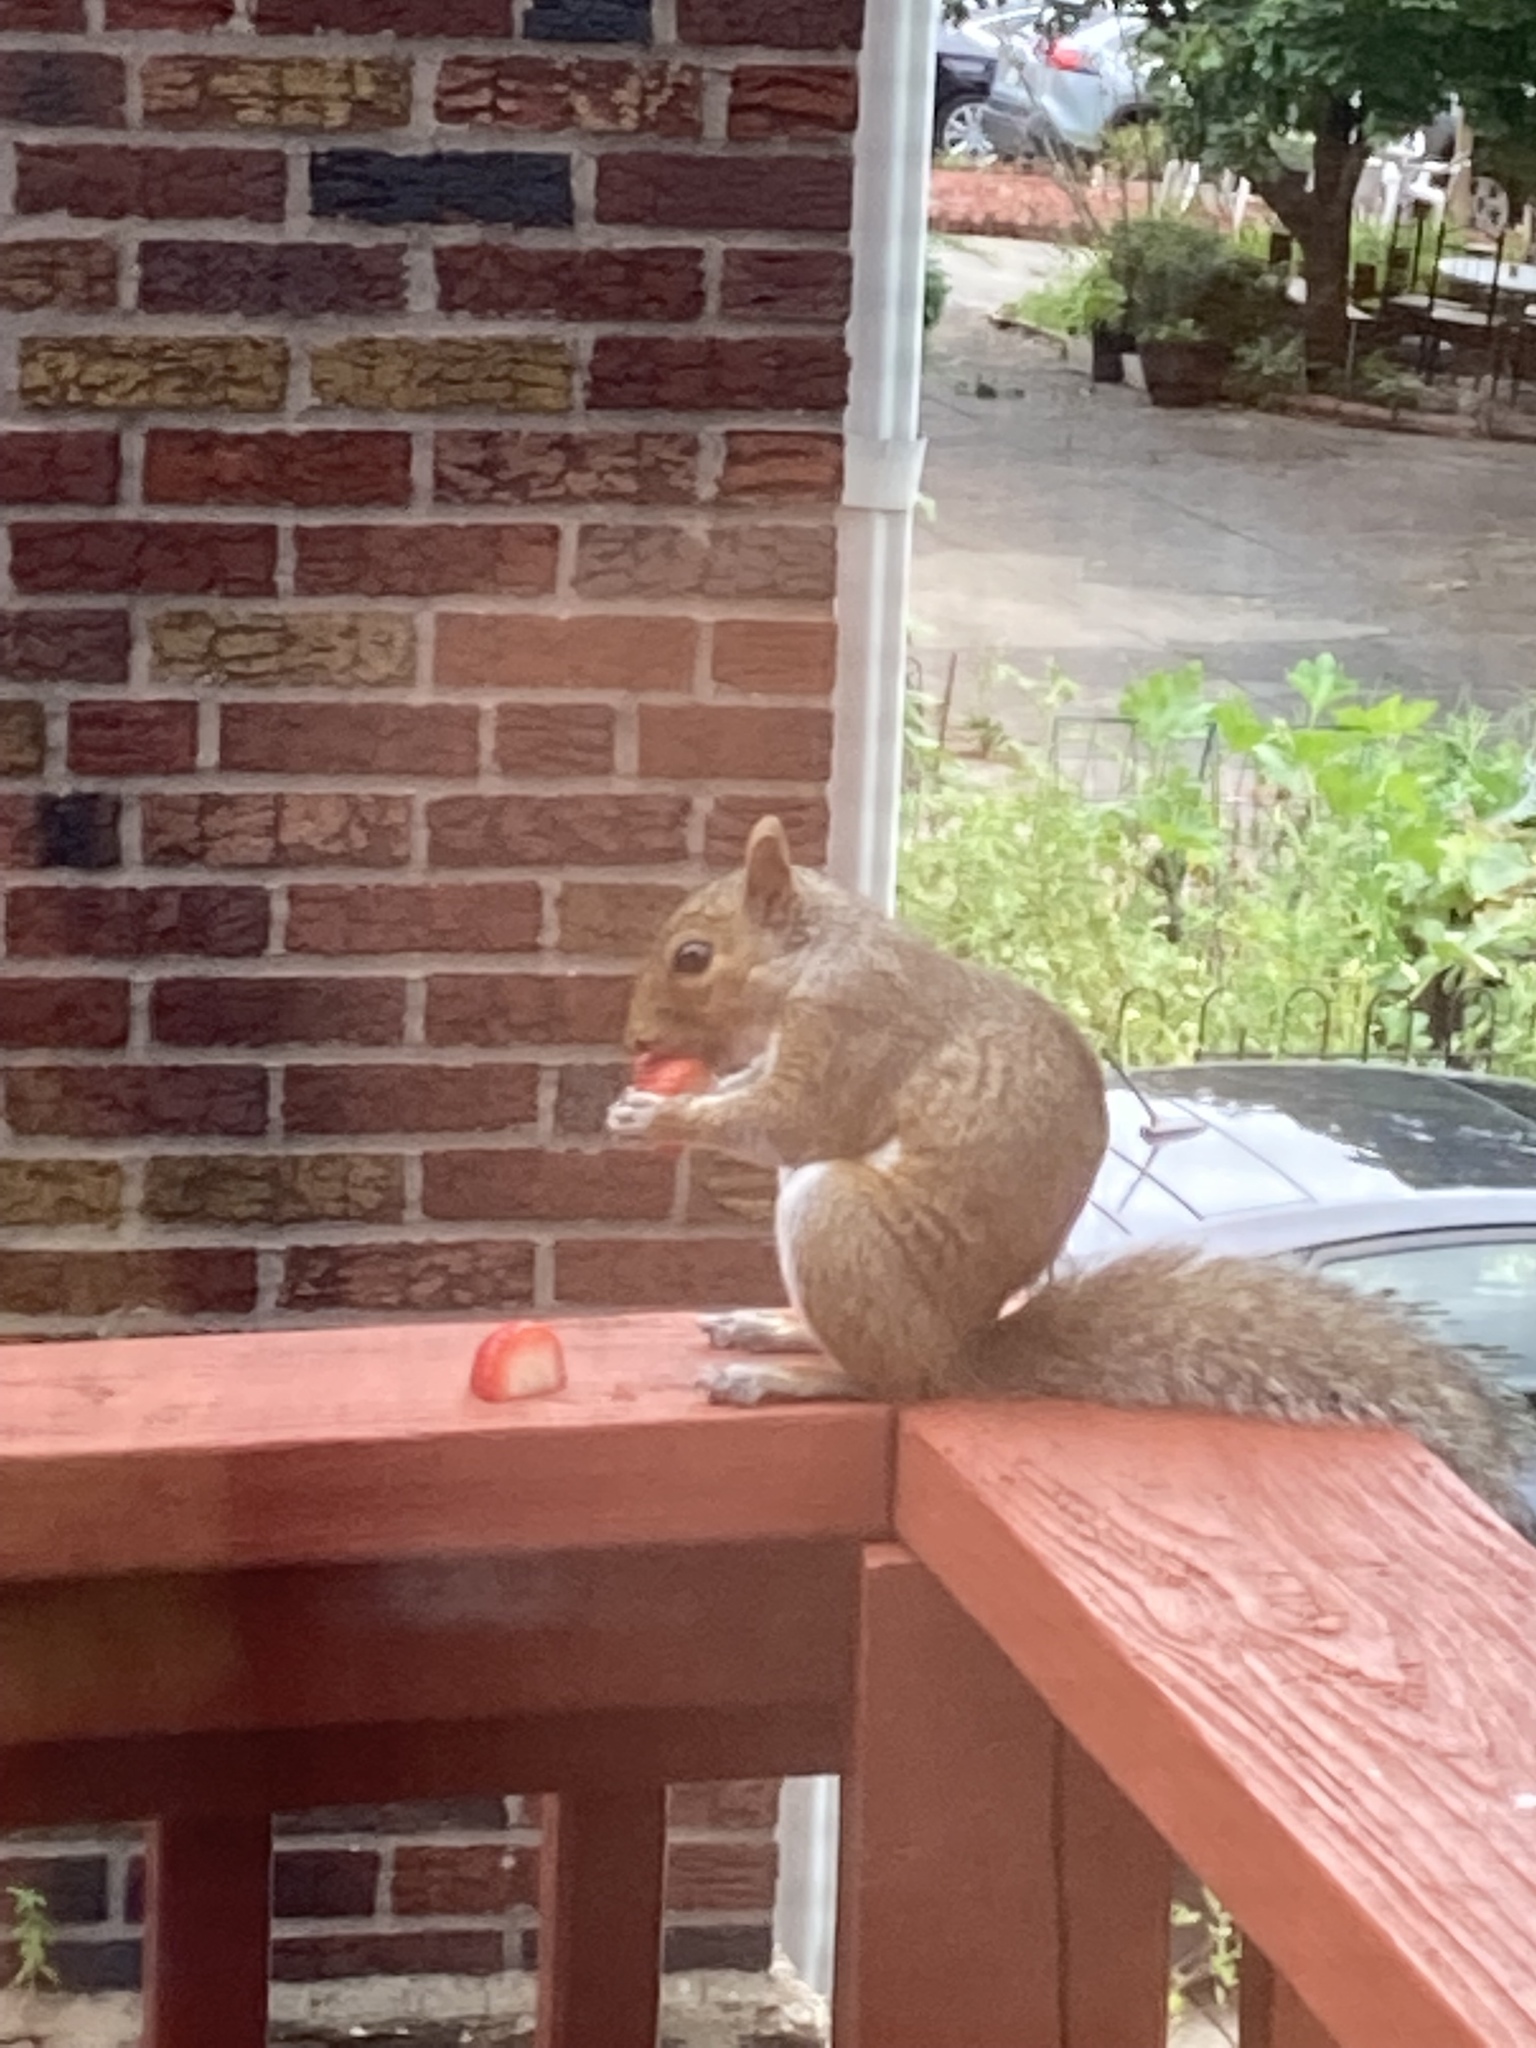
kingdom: Animalia
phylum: Chordata
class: Mammalia
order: Rodentia
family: Sciuridae
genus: Sciurus
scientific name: Sciurus carolinensis
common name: Eastern gray squirrel
